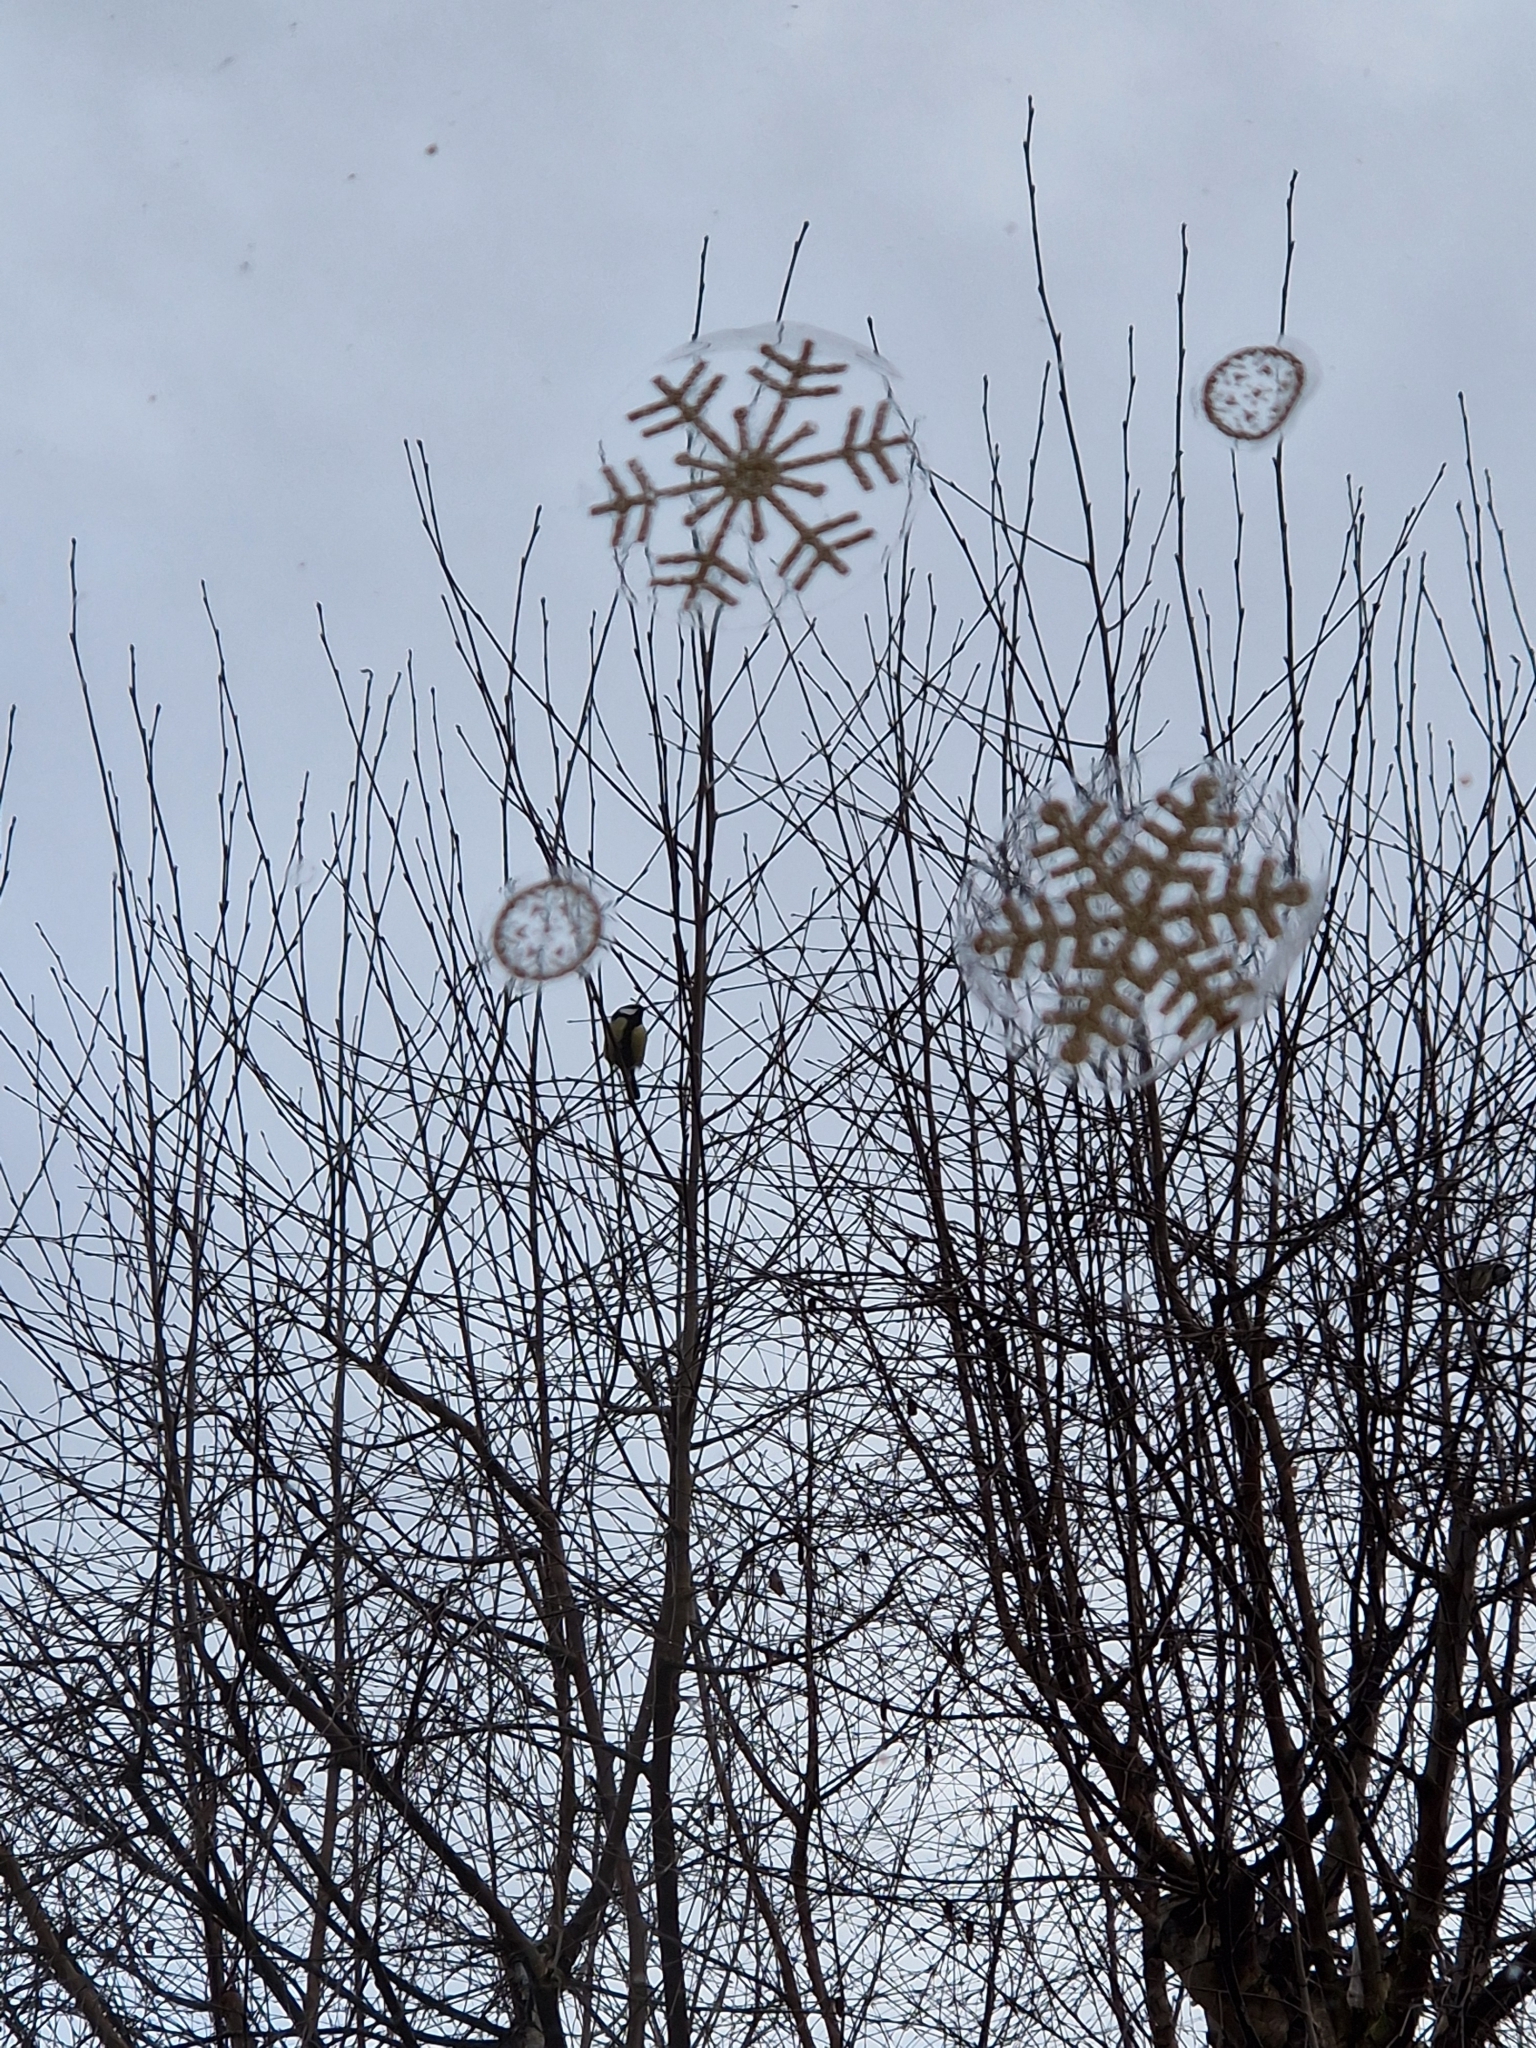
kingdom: Animalia
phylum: Chordata
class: Aves
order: Passeriformes
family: Paridae
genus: Parus
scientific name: Parus major
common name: Great tit
